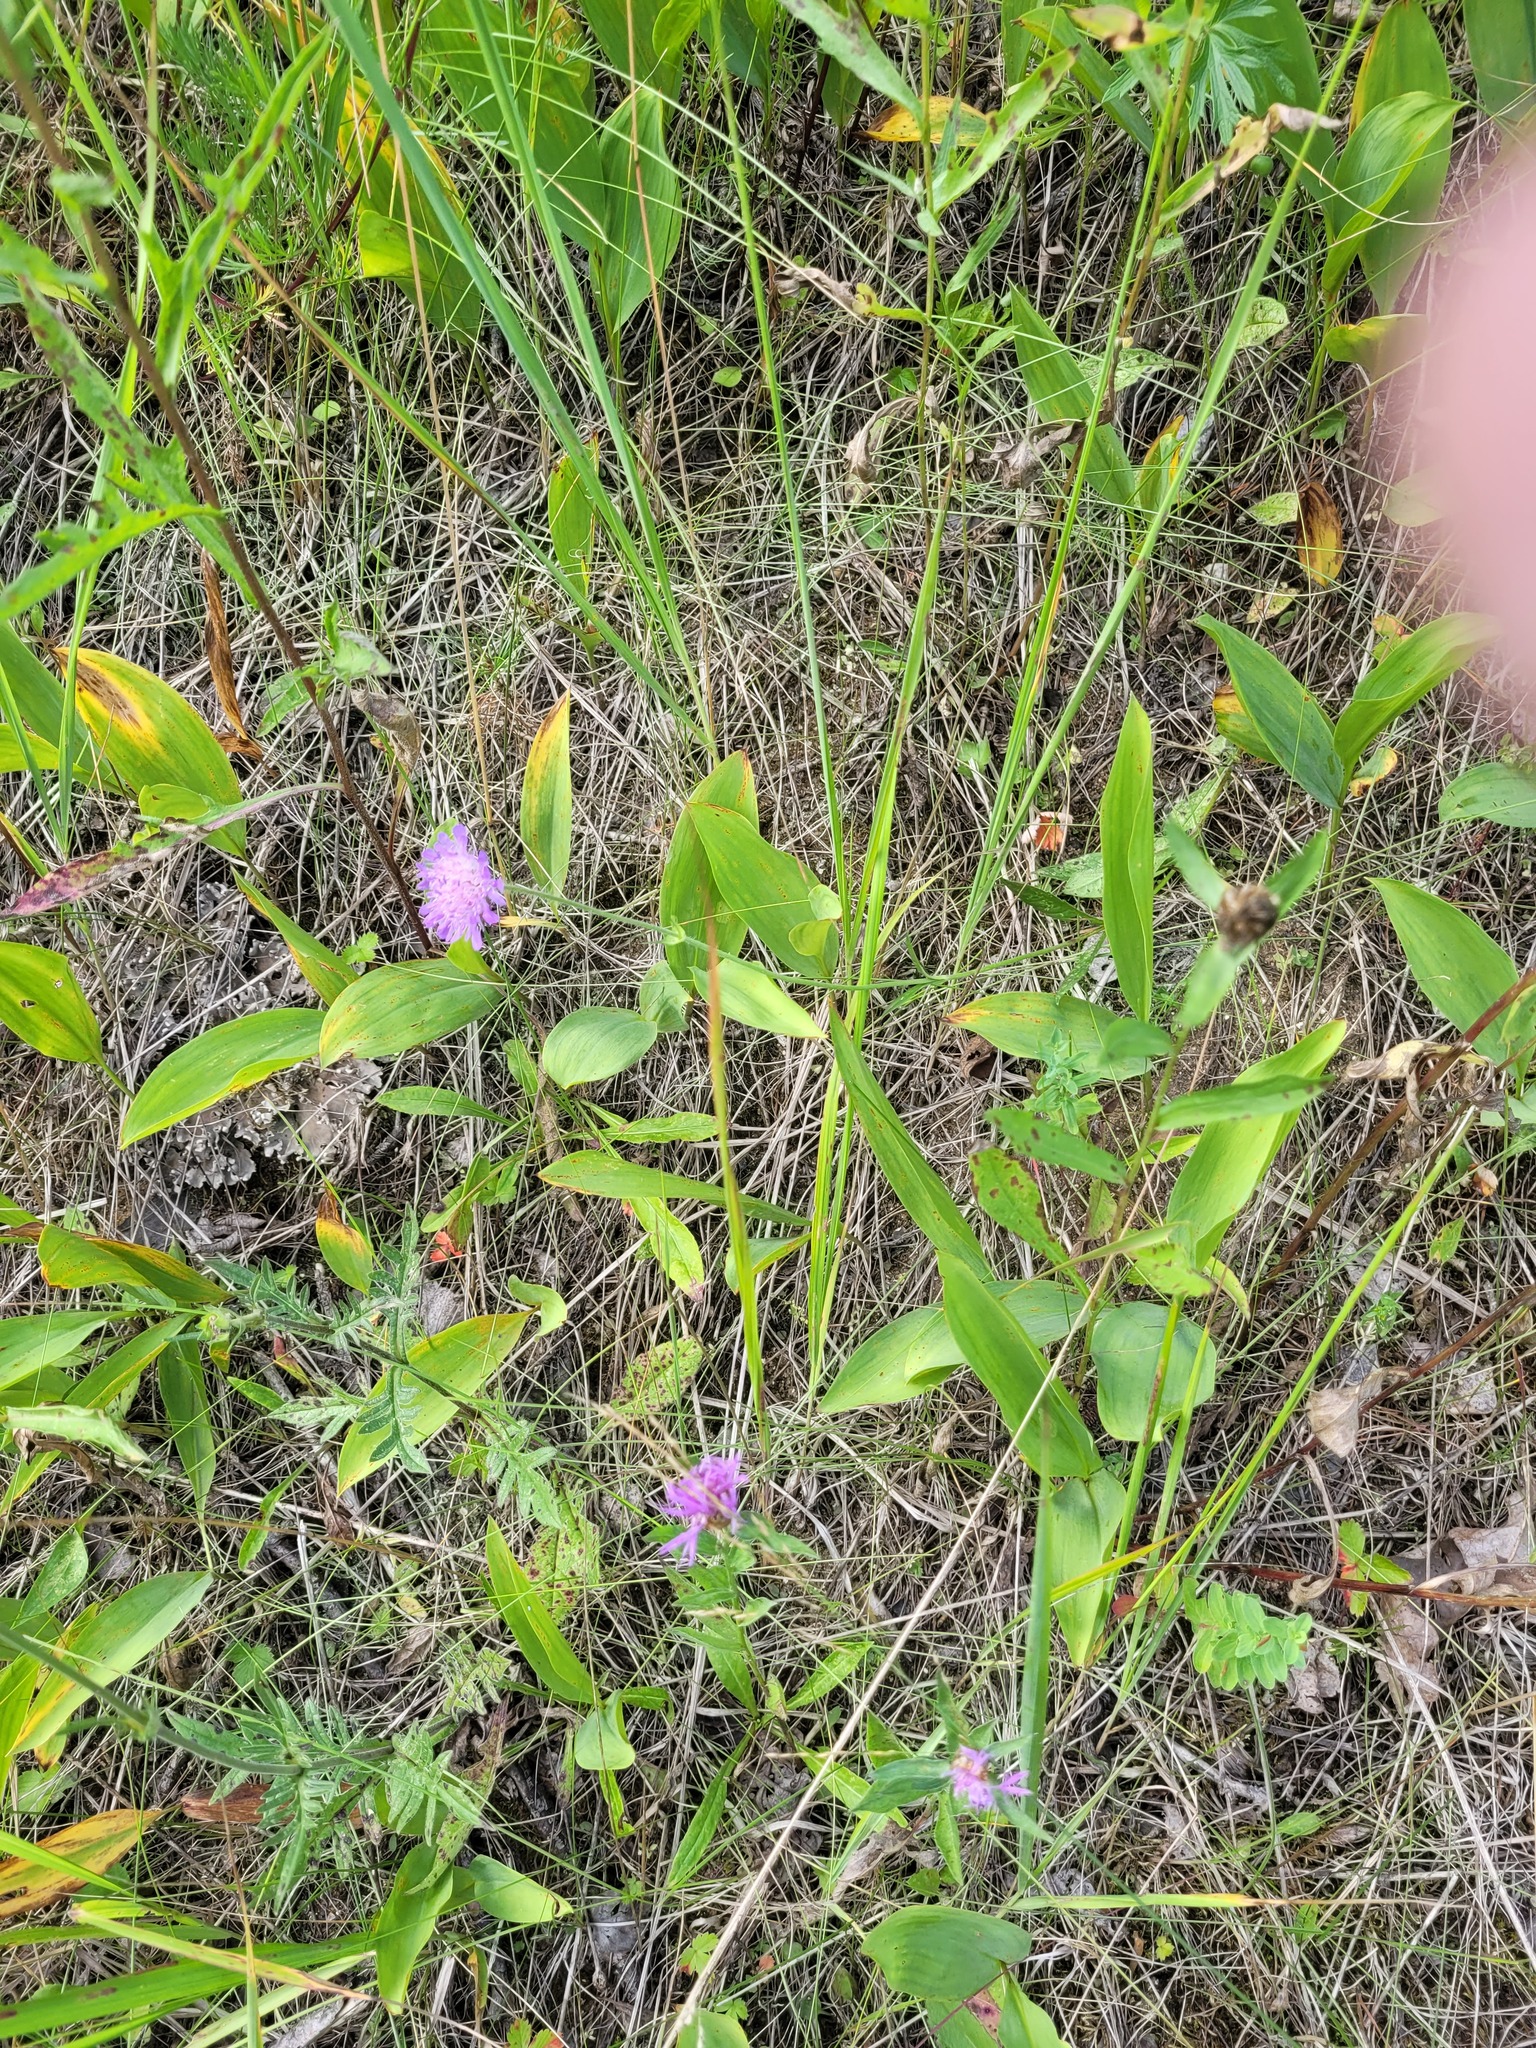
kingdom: Plantae
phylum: Tracheophyta
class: Liliopsida
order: Asparagales
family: Asparagaceae
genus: Convallaria
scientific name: Convallaria majalis
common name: Lily-of-the-valley
